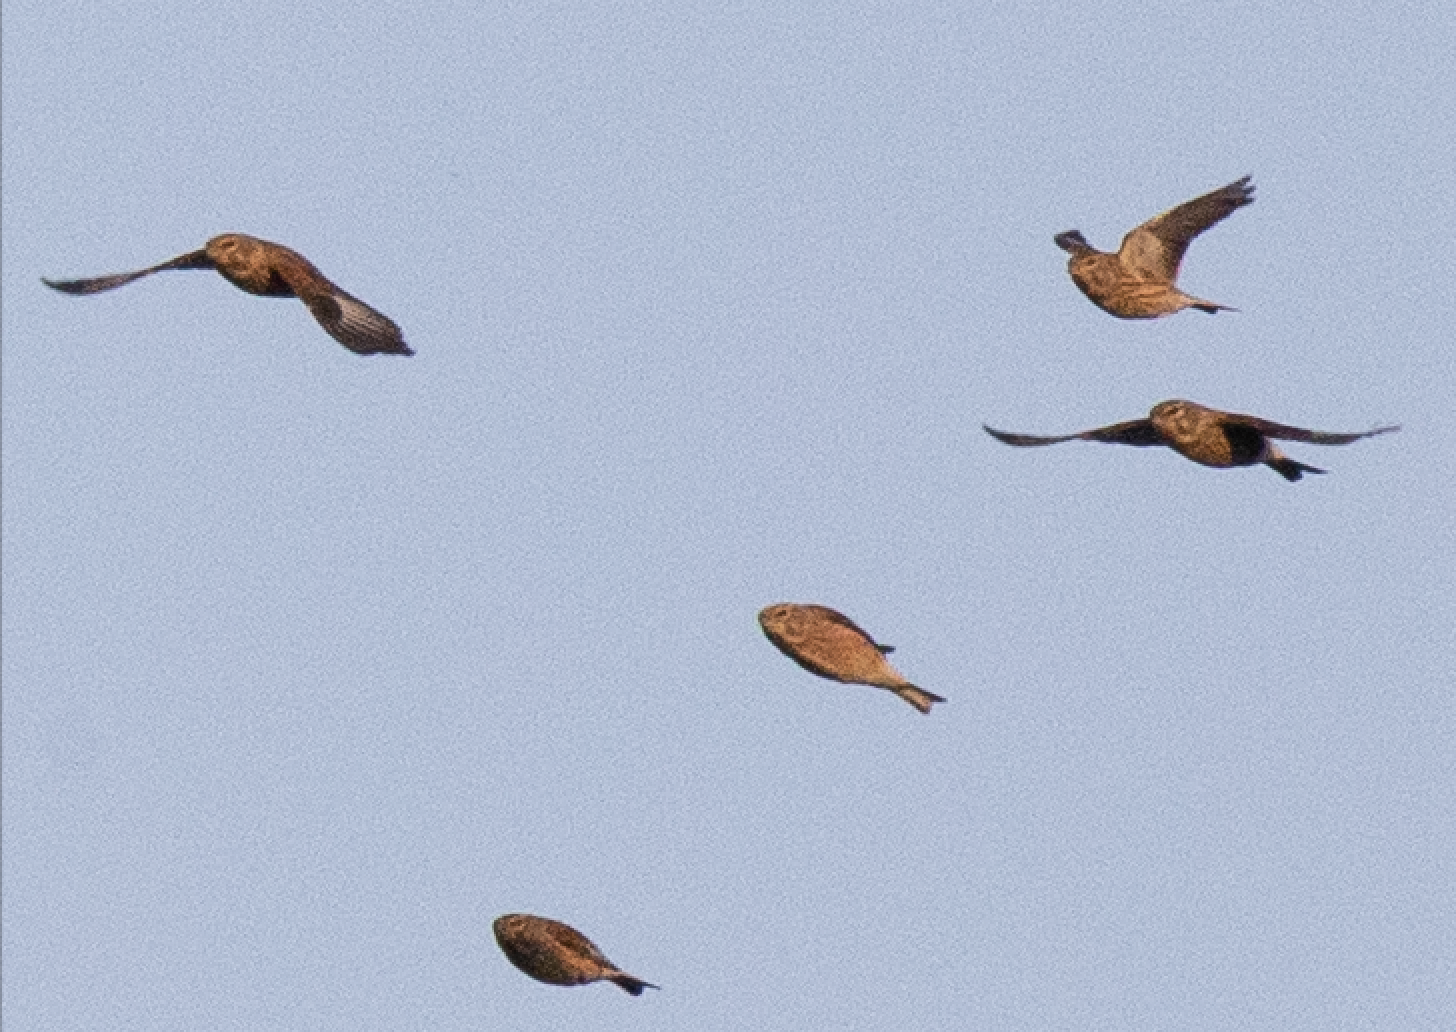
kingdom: Animalia
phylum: Chordata
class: Aves
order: Passeriformes
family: Fringillidae
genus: Linaria
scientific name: Linaria cannabina
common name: Common linnet
